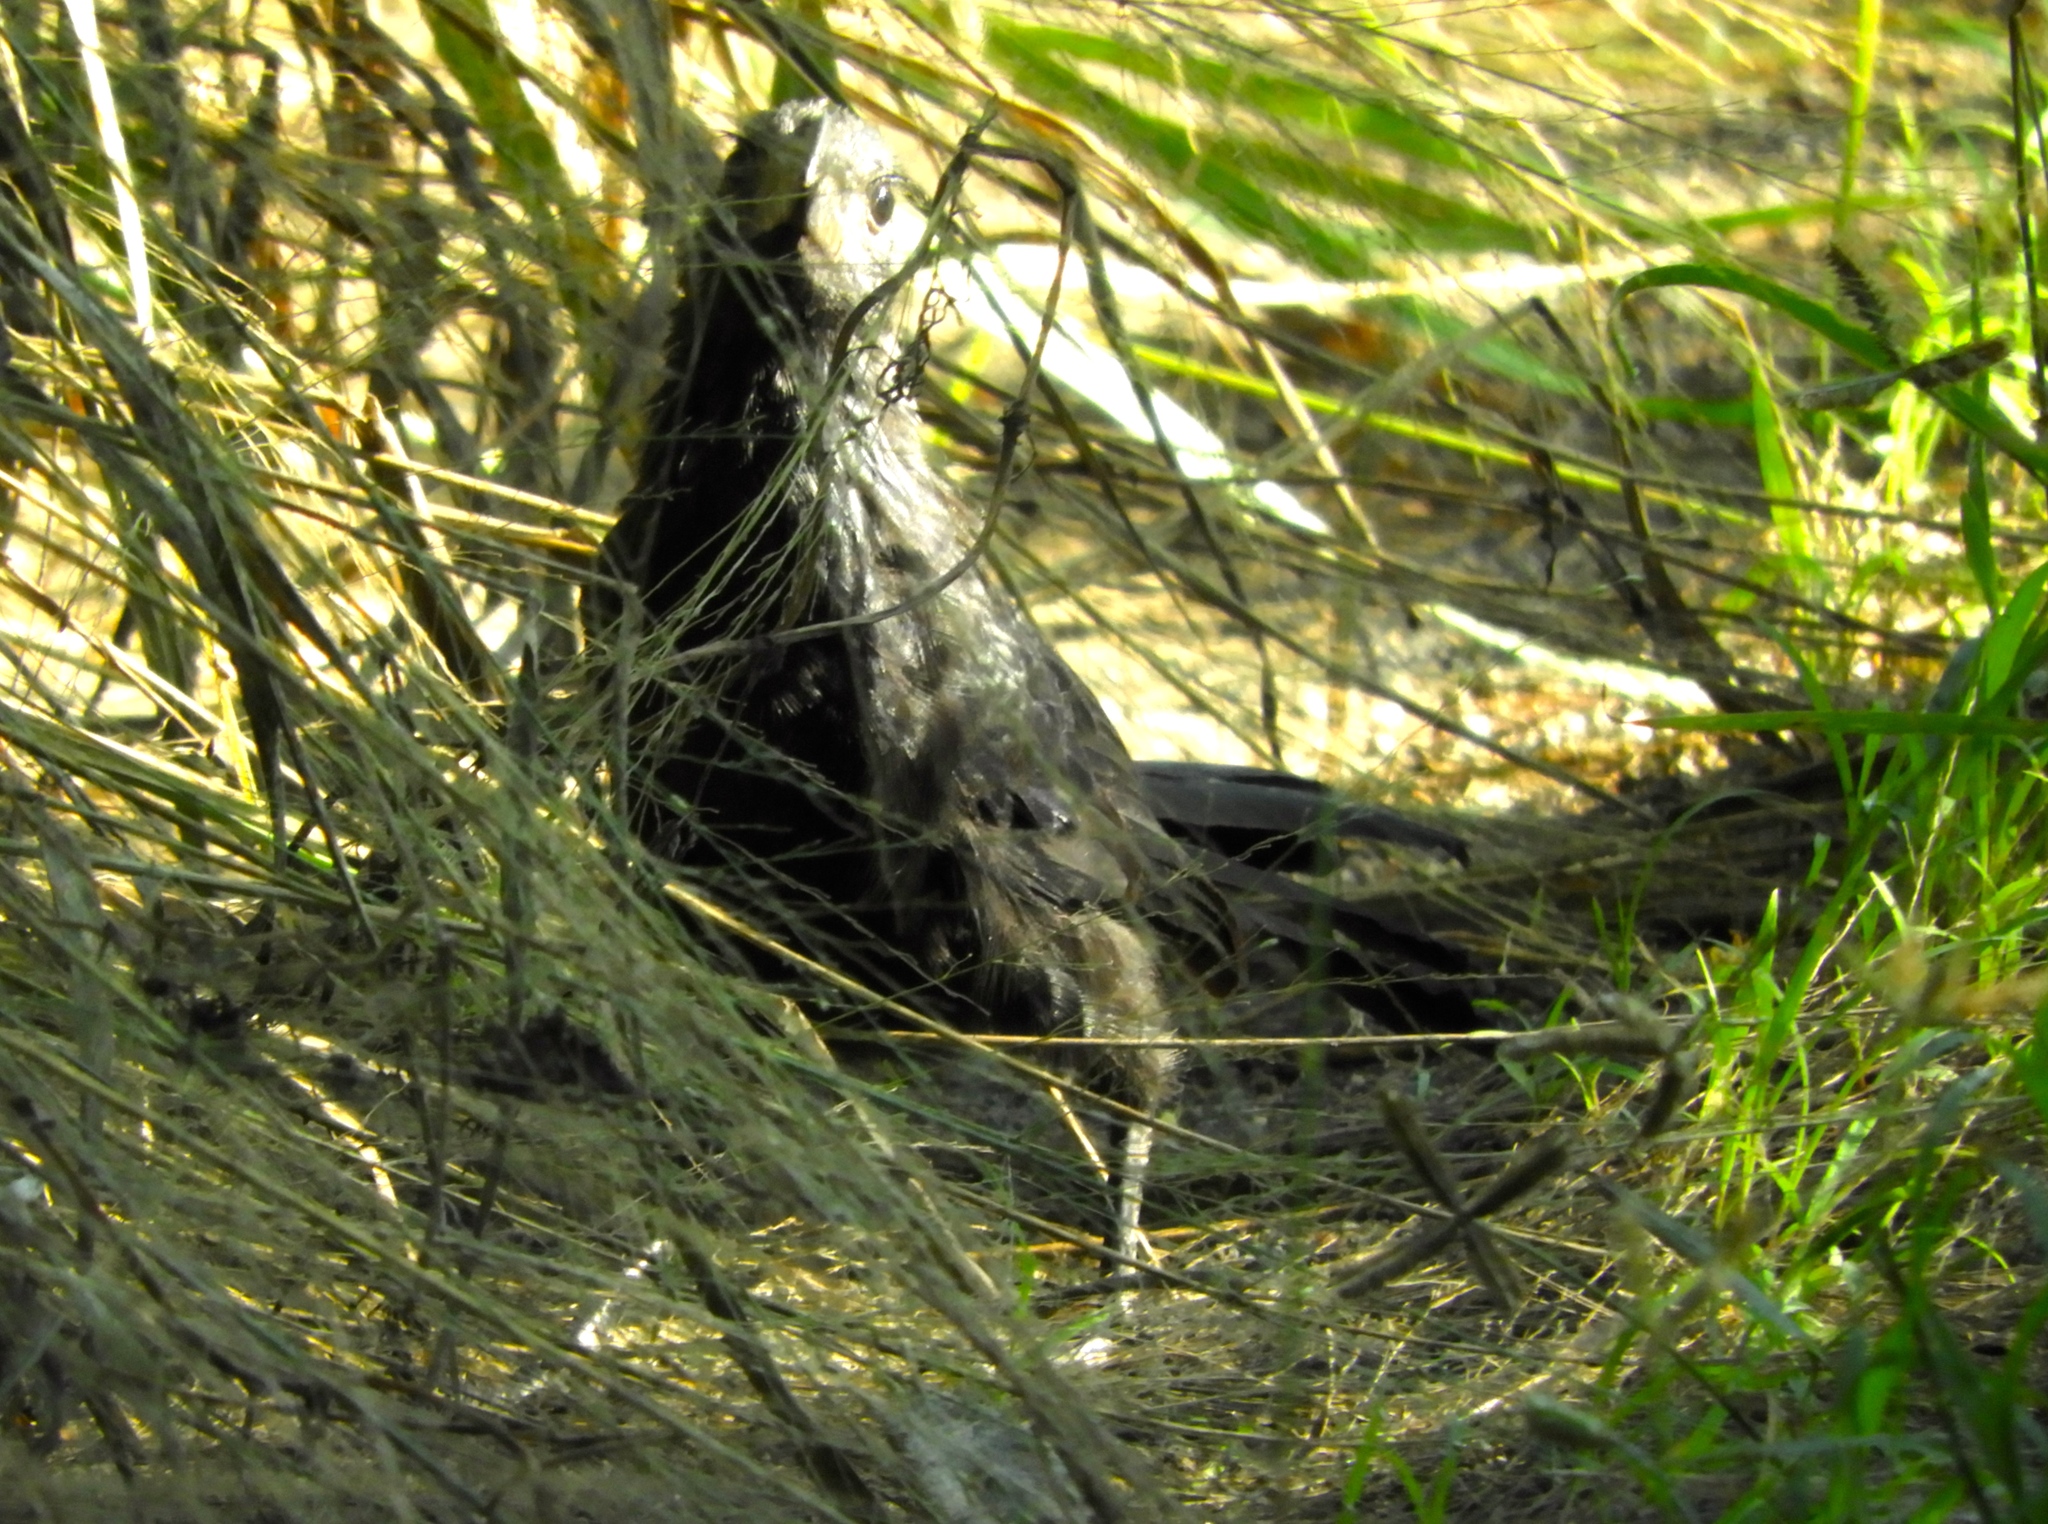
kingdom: Animalia
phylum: Chordata
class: Aves
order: Cuculiformes
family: Cuculidae
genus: Crotophaga
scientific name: Crotophaga sulcirostris
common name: Groove-billed ani
